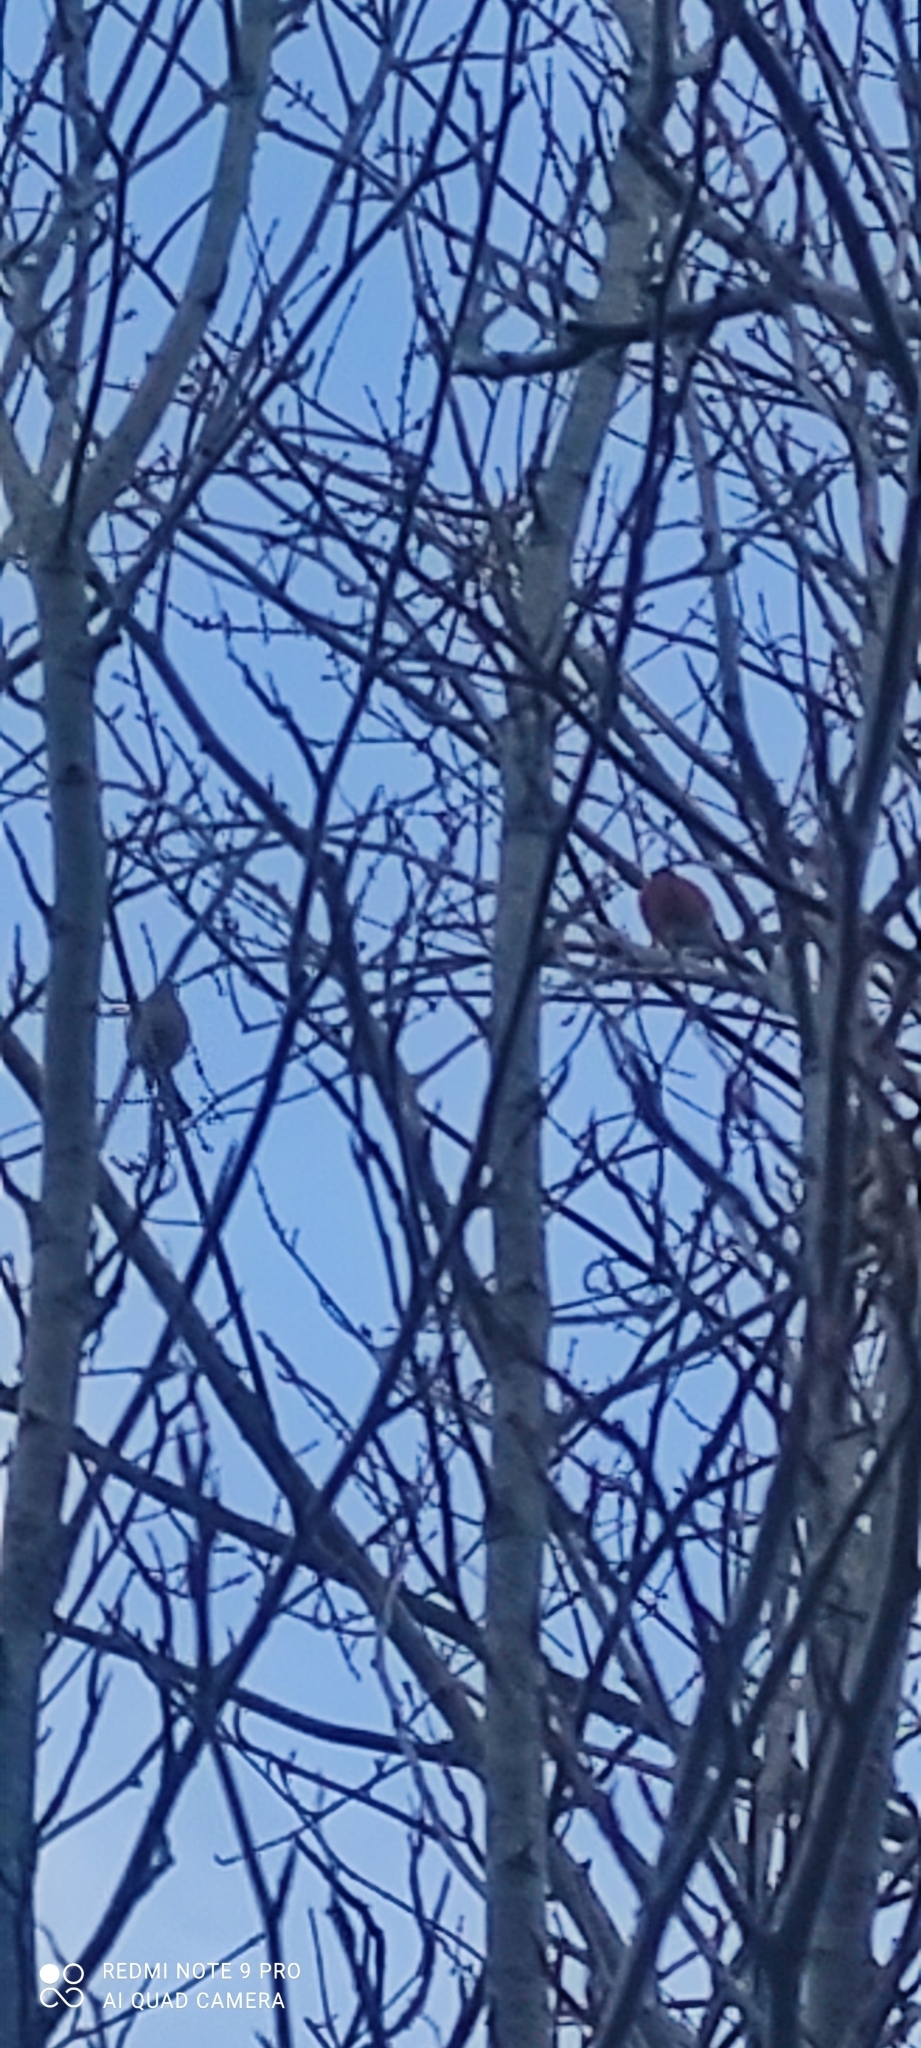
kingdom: Animalia
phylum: Chordata
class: Aves
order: Passeriformes
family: Fringillidae
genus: Pyrrhula
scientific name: Pyrrhula pyrrhula
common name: Eurasian bullfinch
